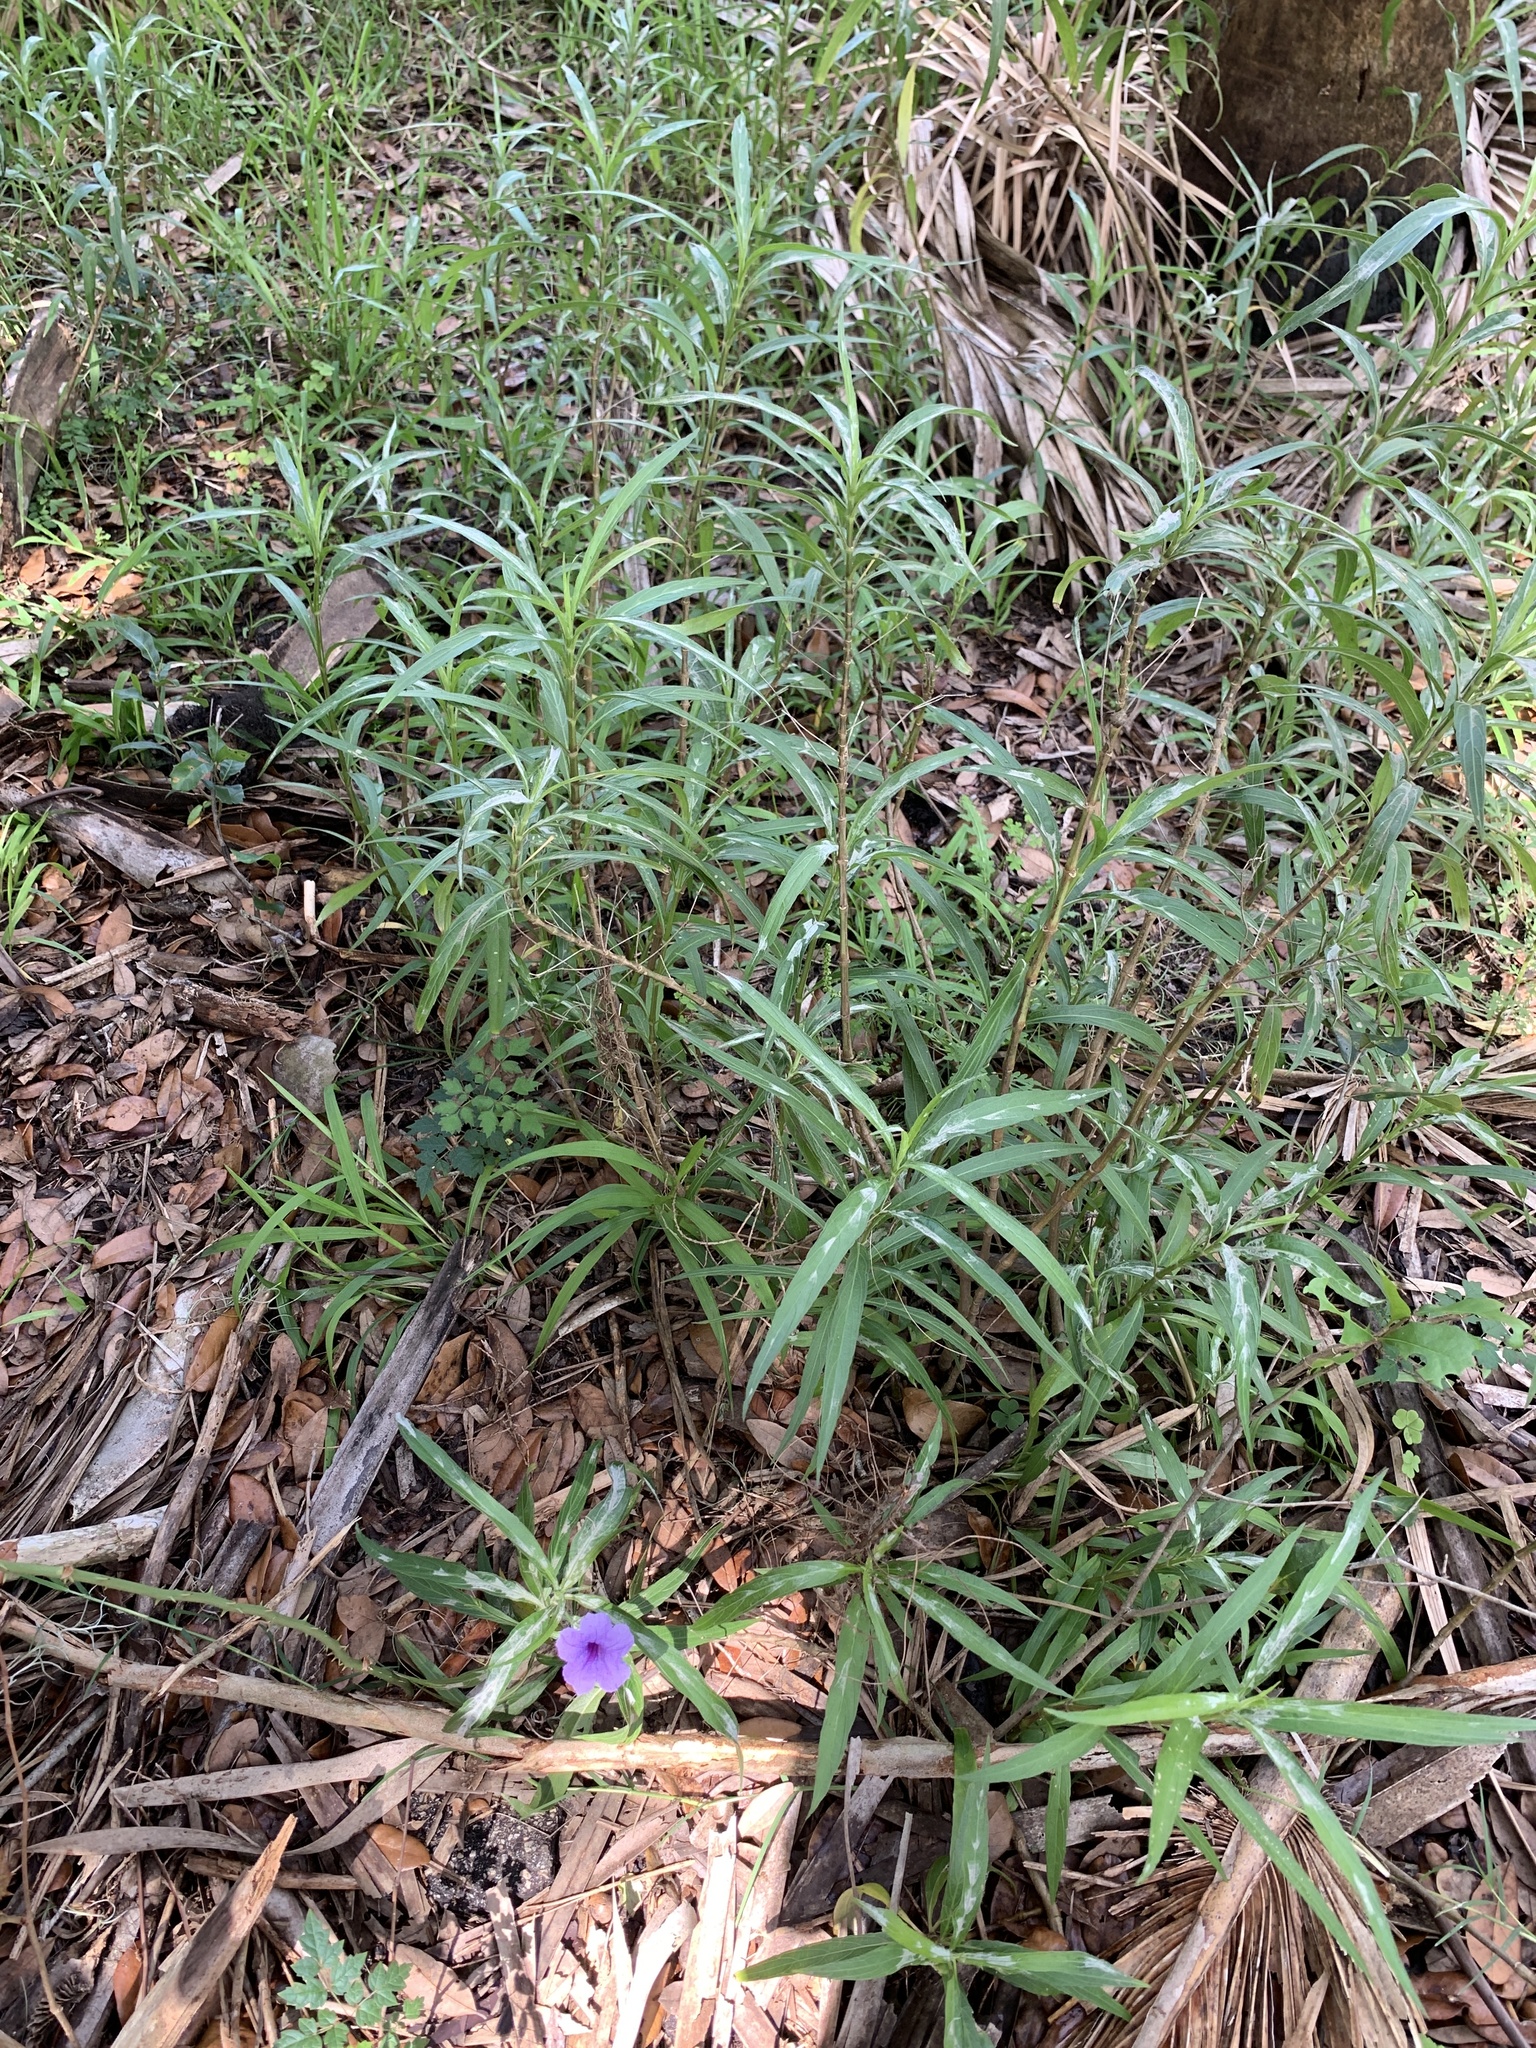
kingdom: Plantae
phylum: Tracheophyta
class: Magnoliopsida
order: Lamiales
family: Acanthaceae
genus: Ruellia
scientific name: Ruellia simplex
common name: Softseed wild petunia
